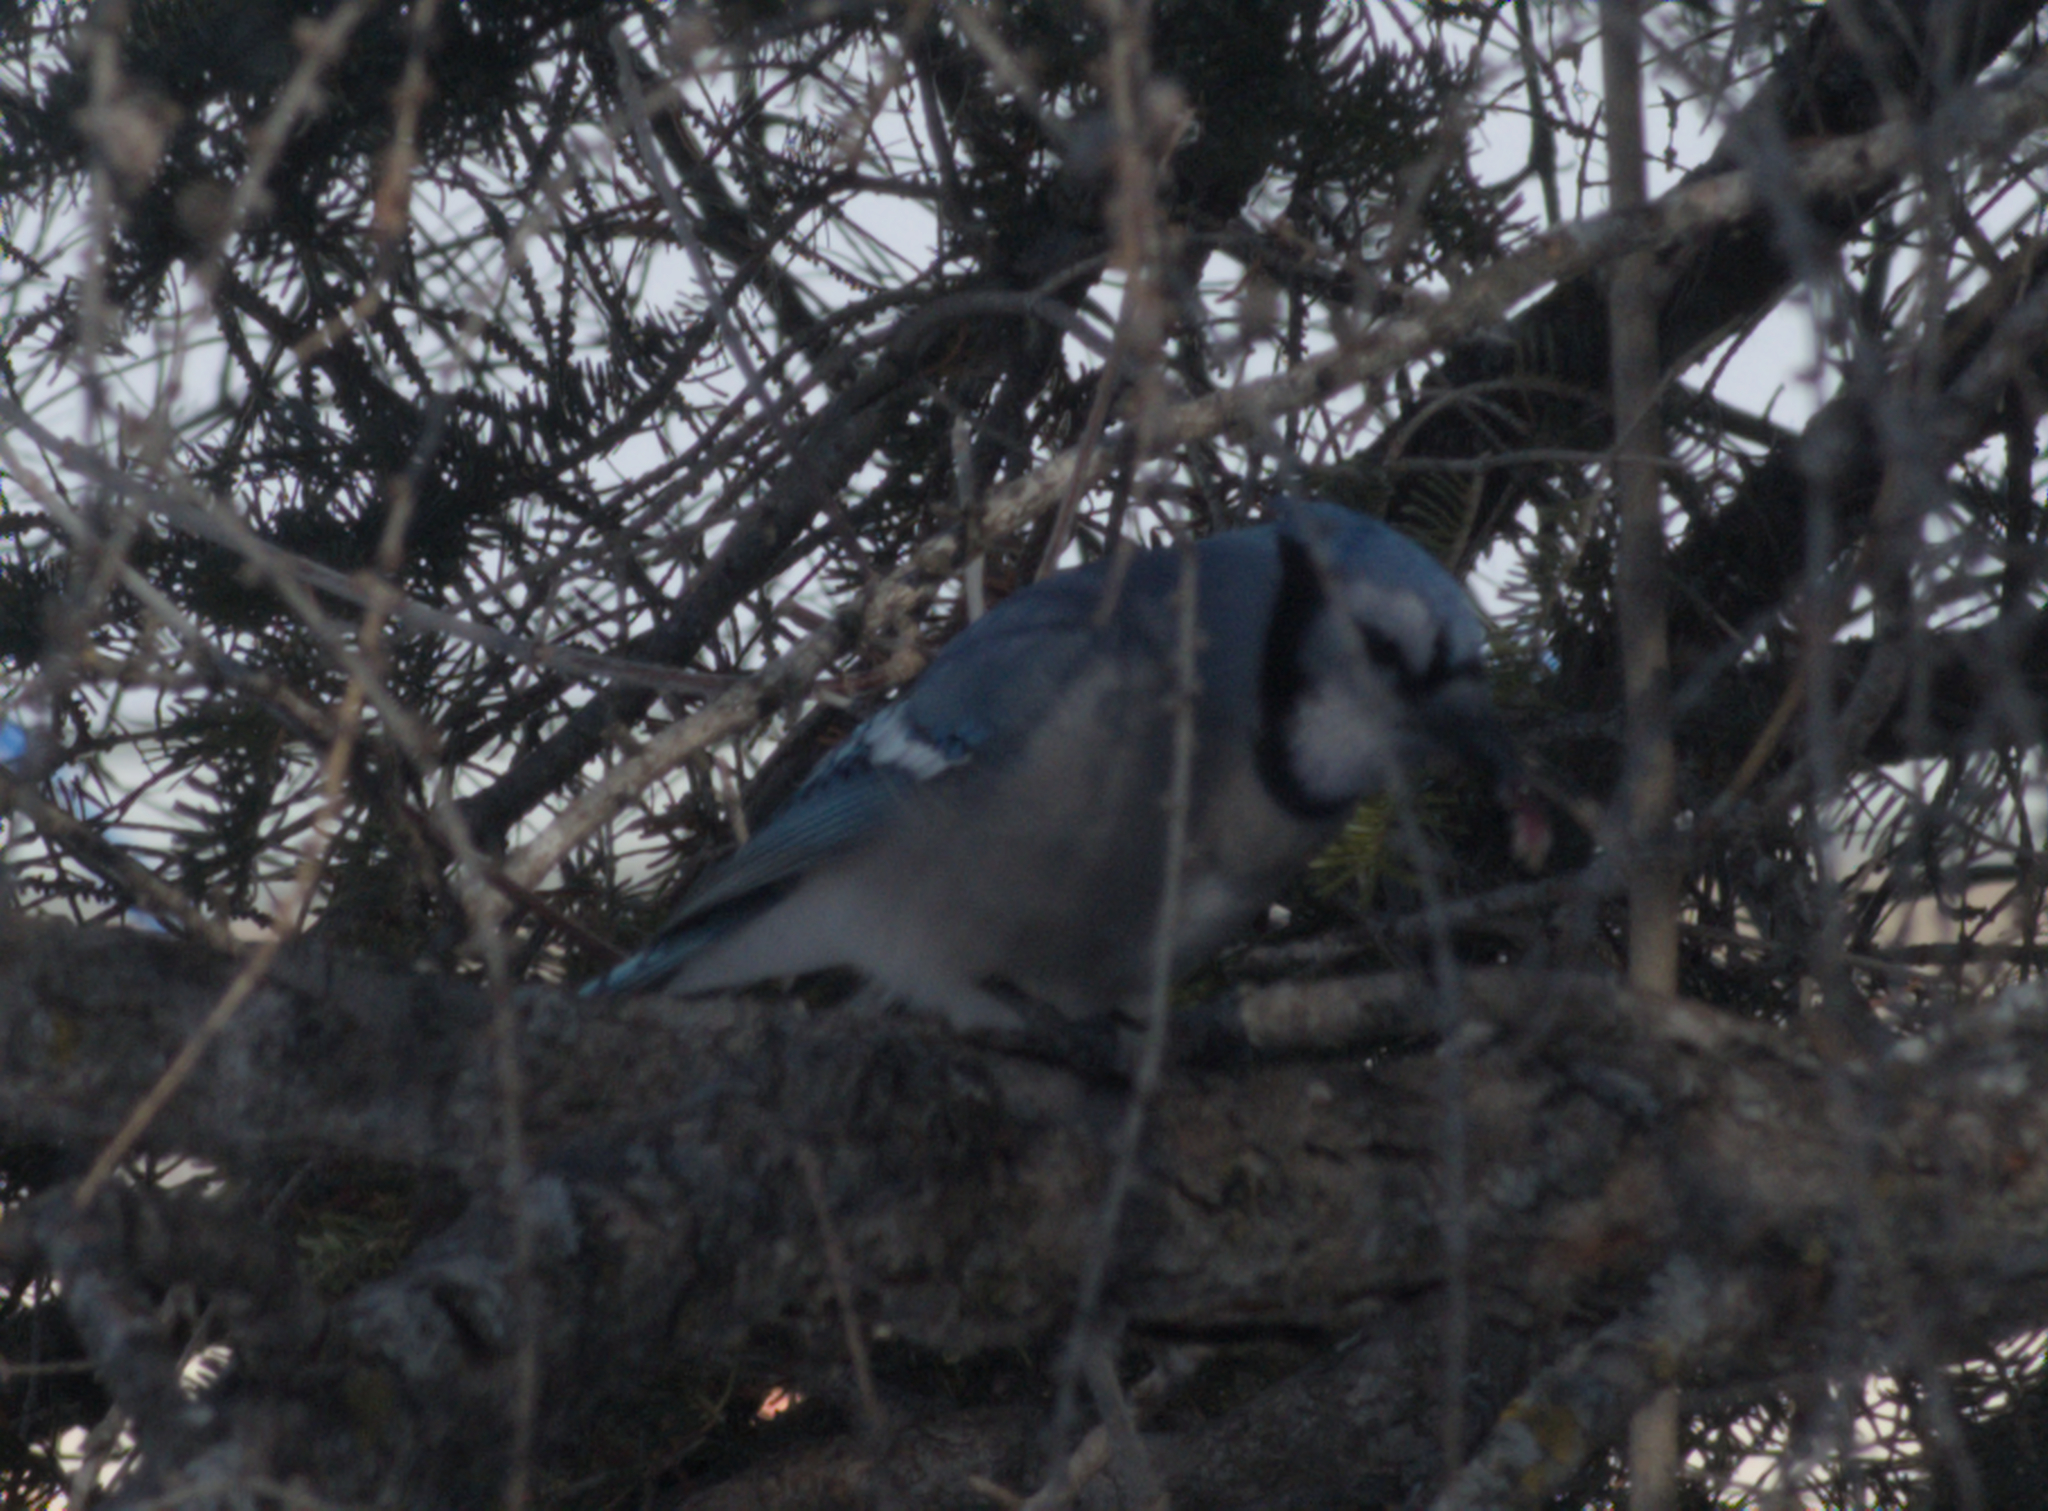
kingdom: Animalia
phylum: Chordata
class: Aves
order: Passeriformes
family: Corvidae
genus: Cyanocitta
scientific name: Cyanocitta cristata
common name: Blue jay
